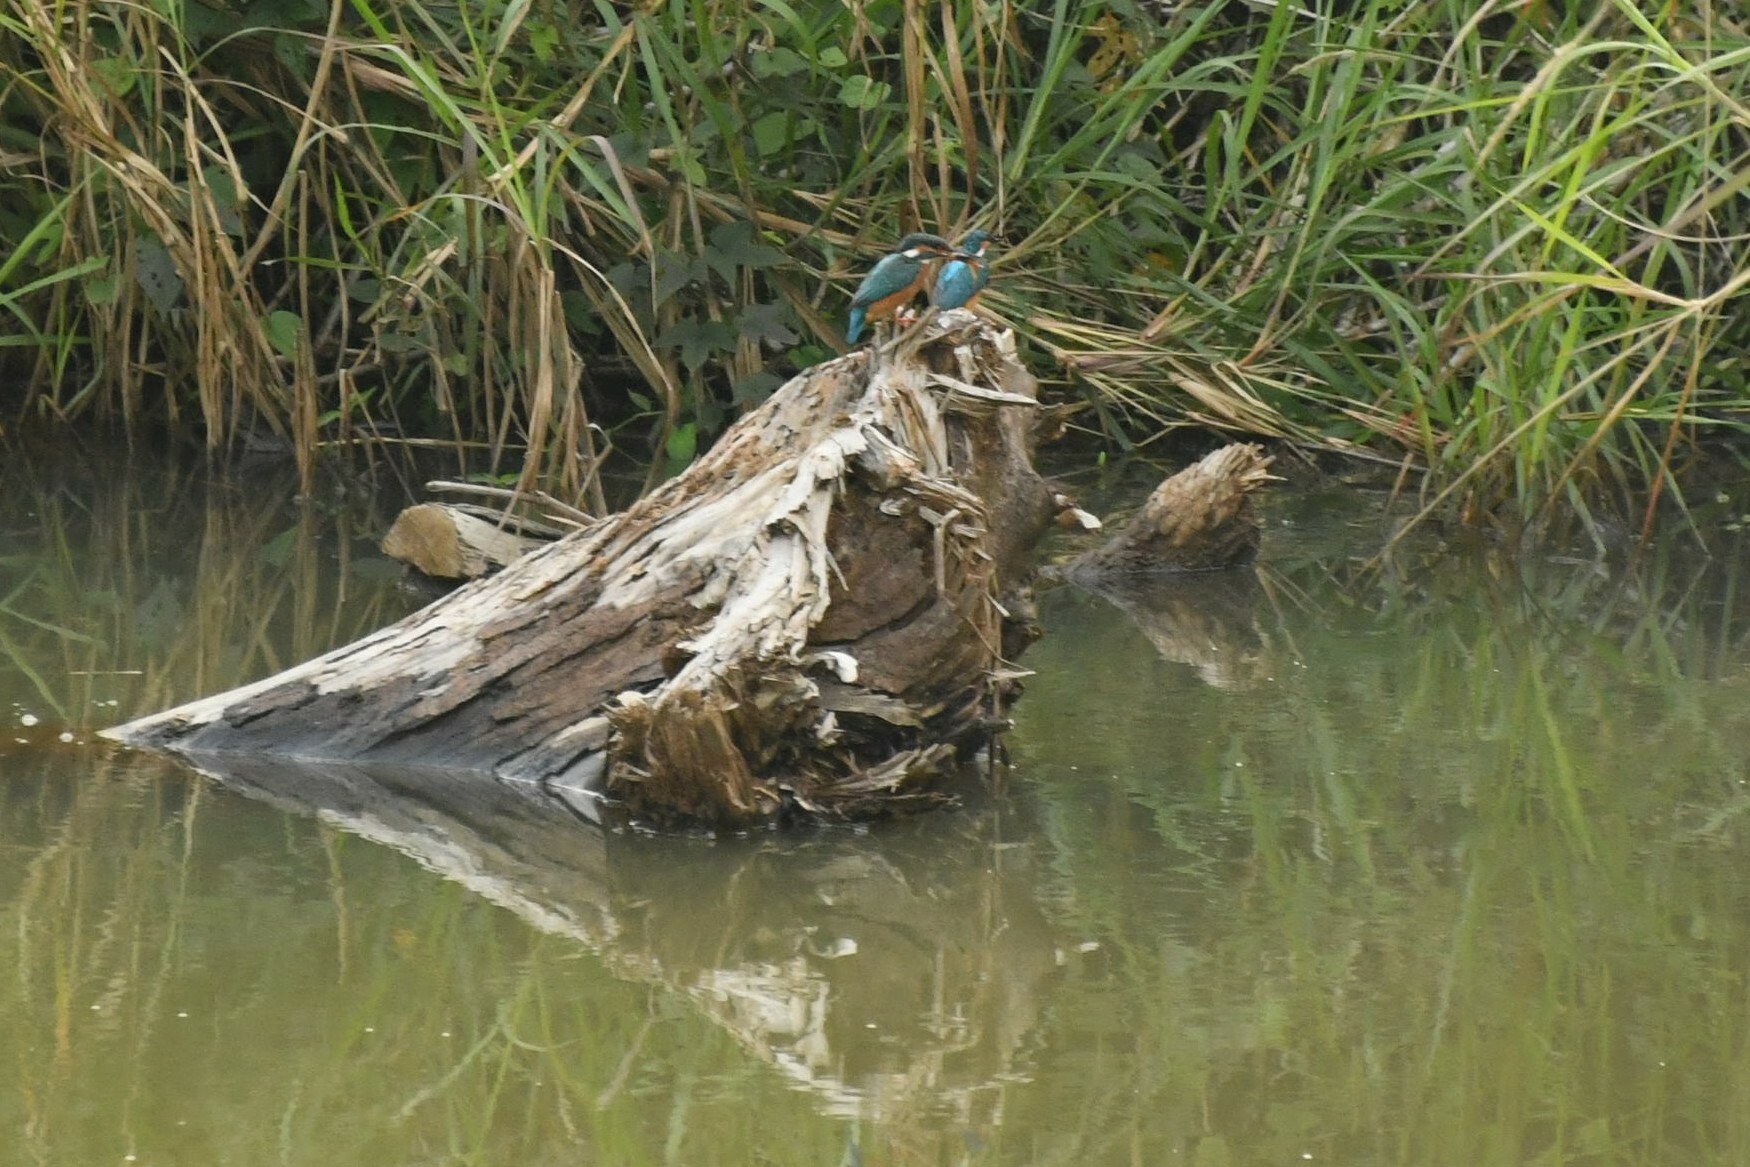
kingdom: Animalia
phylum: Chordata
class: Aves
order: Coraciiformes
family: Alcedinidae
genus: Alcedo
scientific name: Alcedo atthis
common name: Common kingfisher
